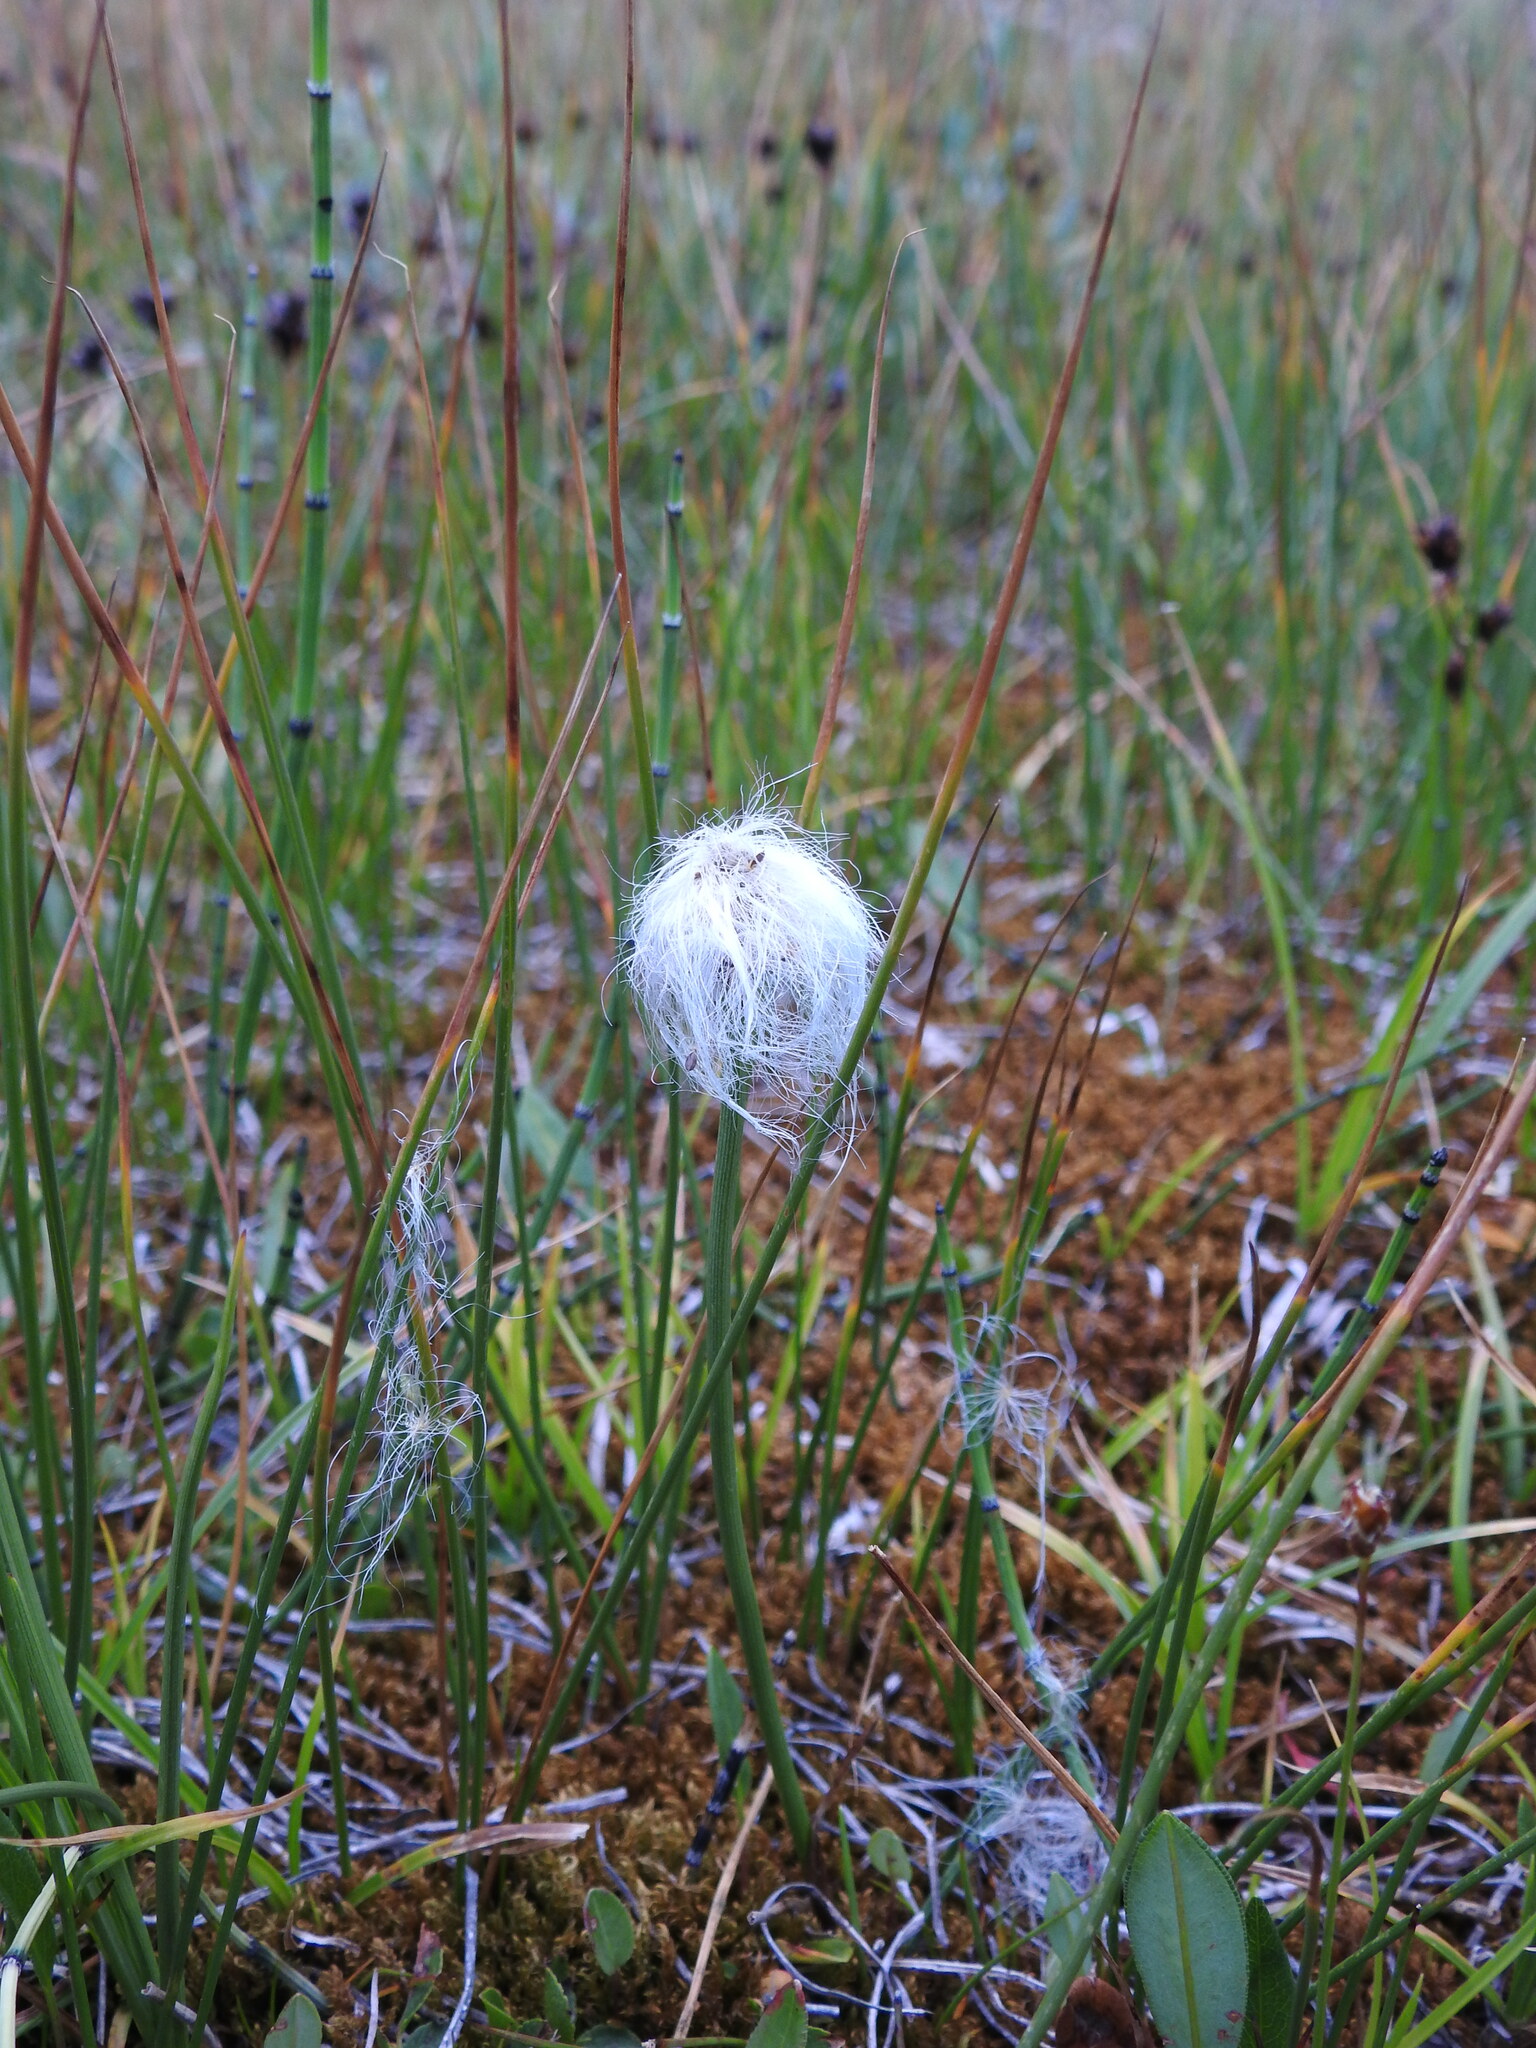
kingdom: Plantae
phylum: Tracheophyta
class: Liliopsida
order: Poales
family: Cyperaceae
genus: Eriophorum
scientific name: Eriophorum scheuchzeri
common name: Scheuchzer's cottongrass
